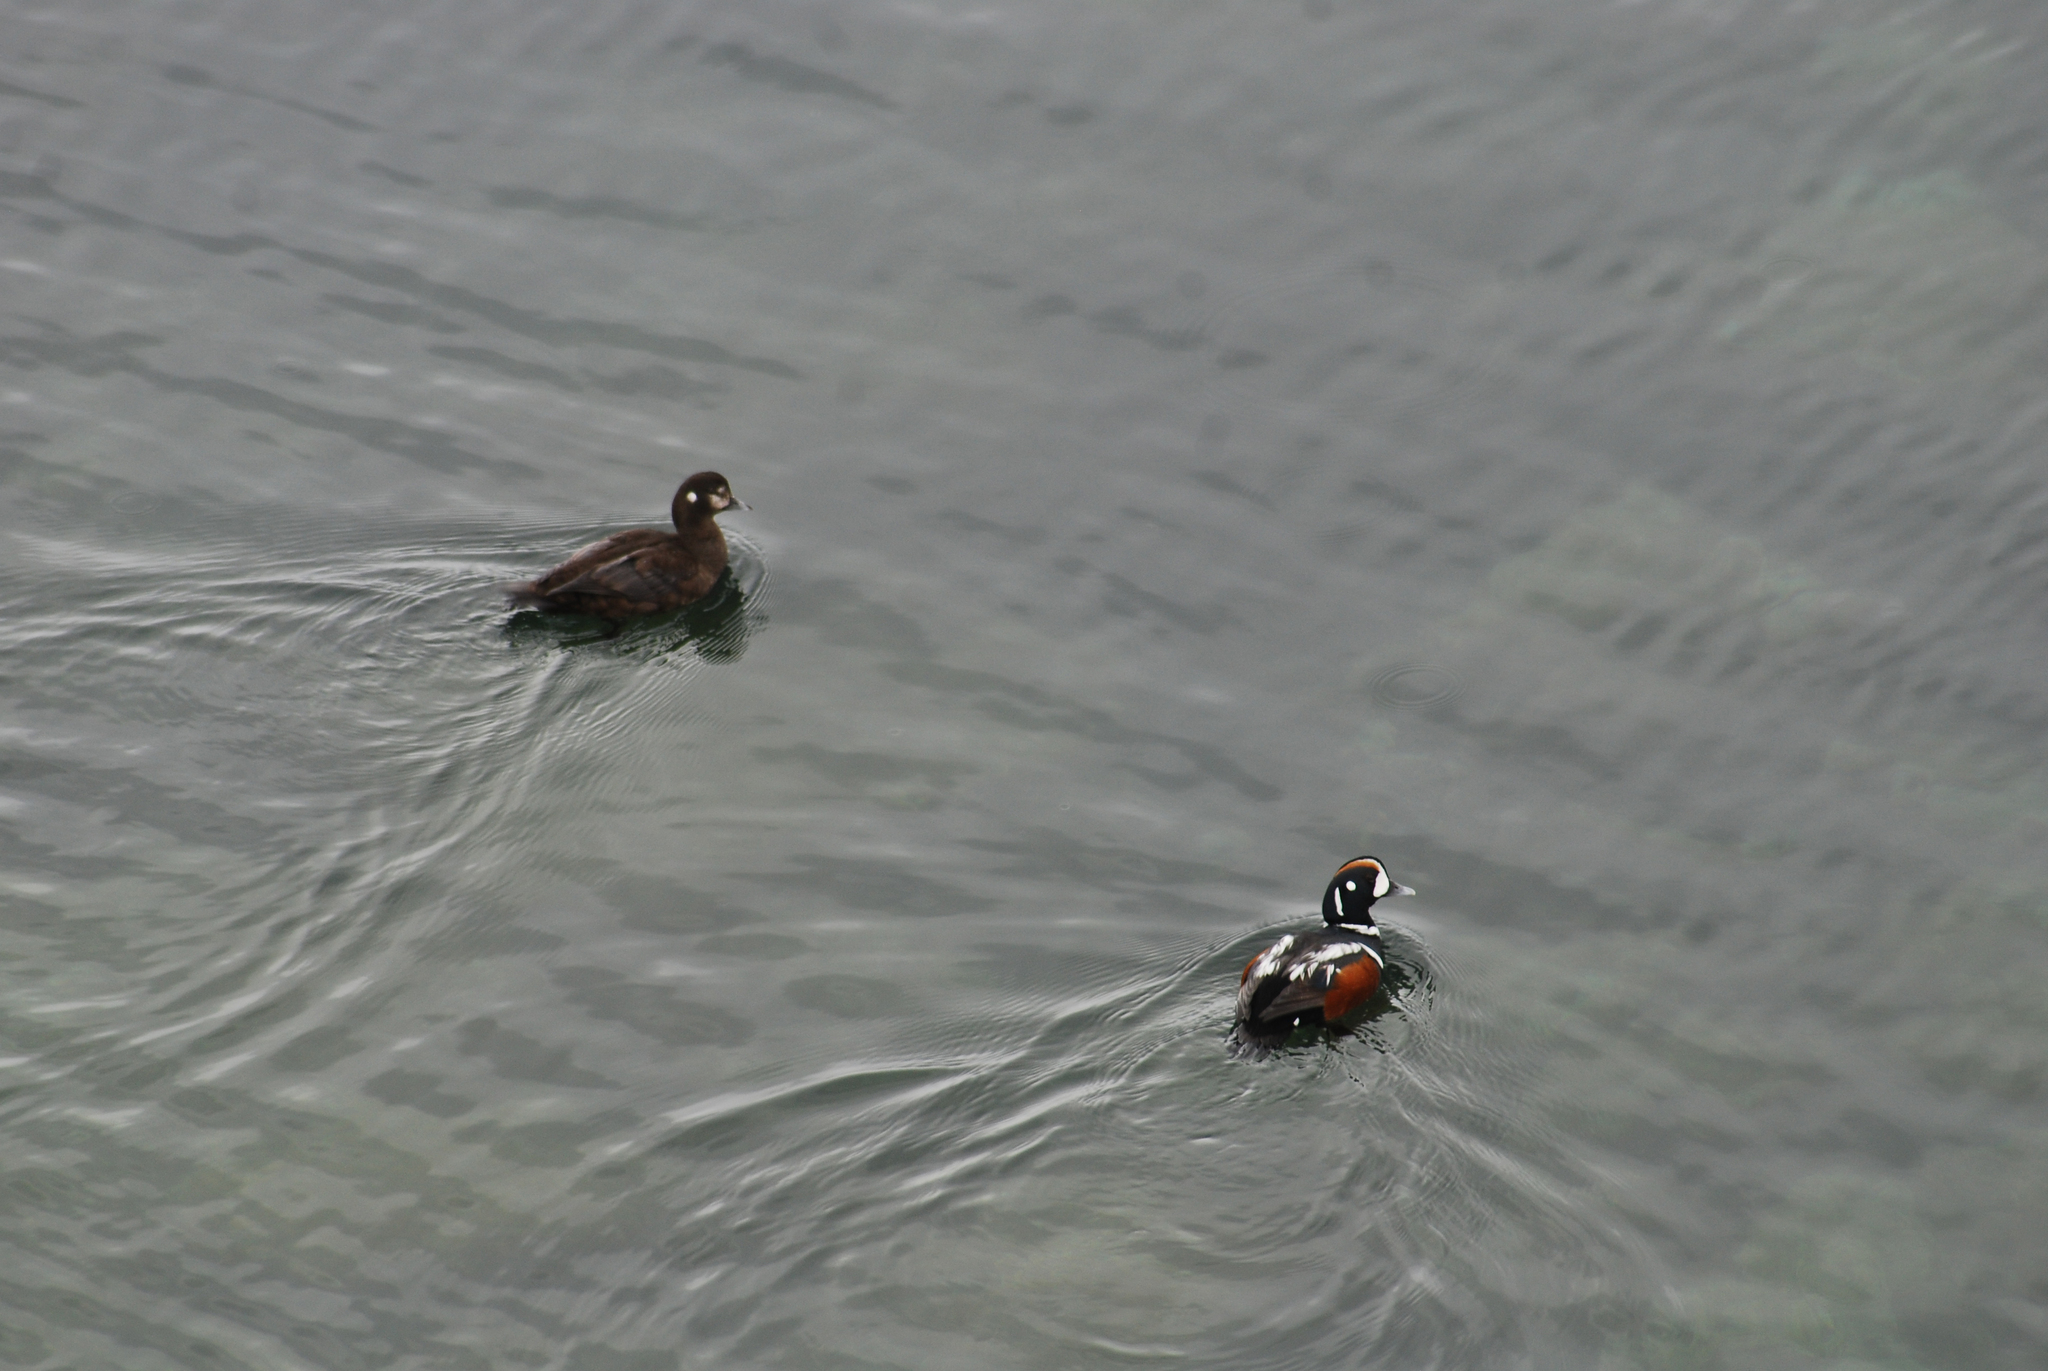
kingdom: Animalia
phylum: Chordata
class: Aves
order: Anseriformes
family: Anatidae
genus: Histrionicus
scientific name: Histrionicus histrionicus
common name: Harlequin duck
